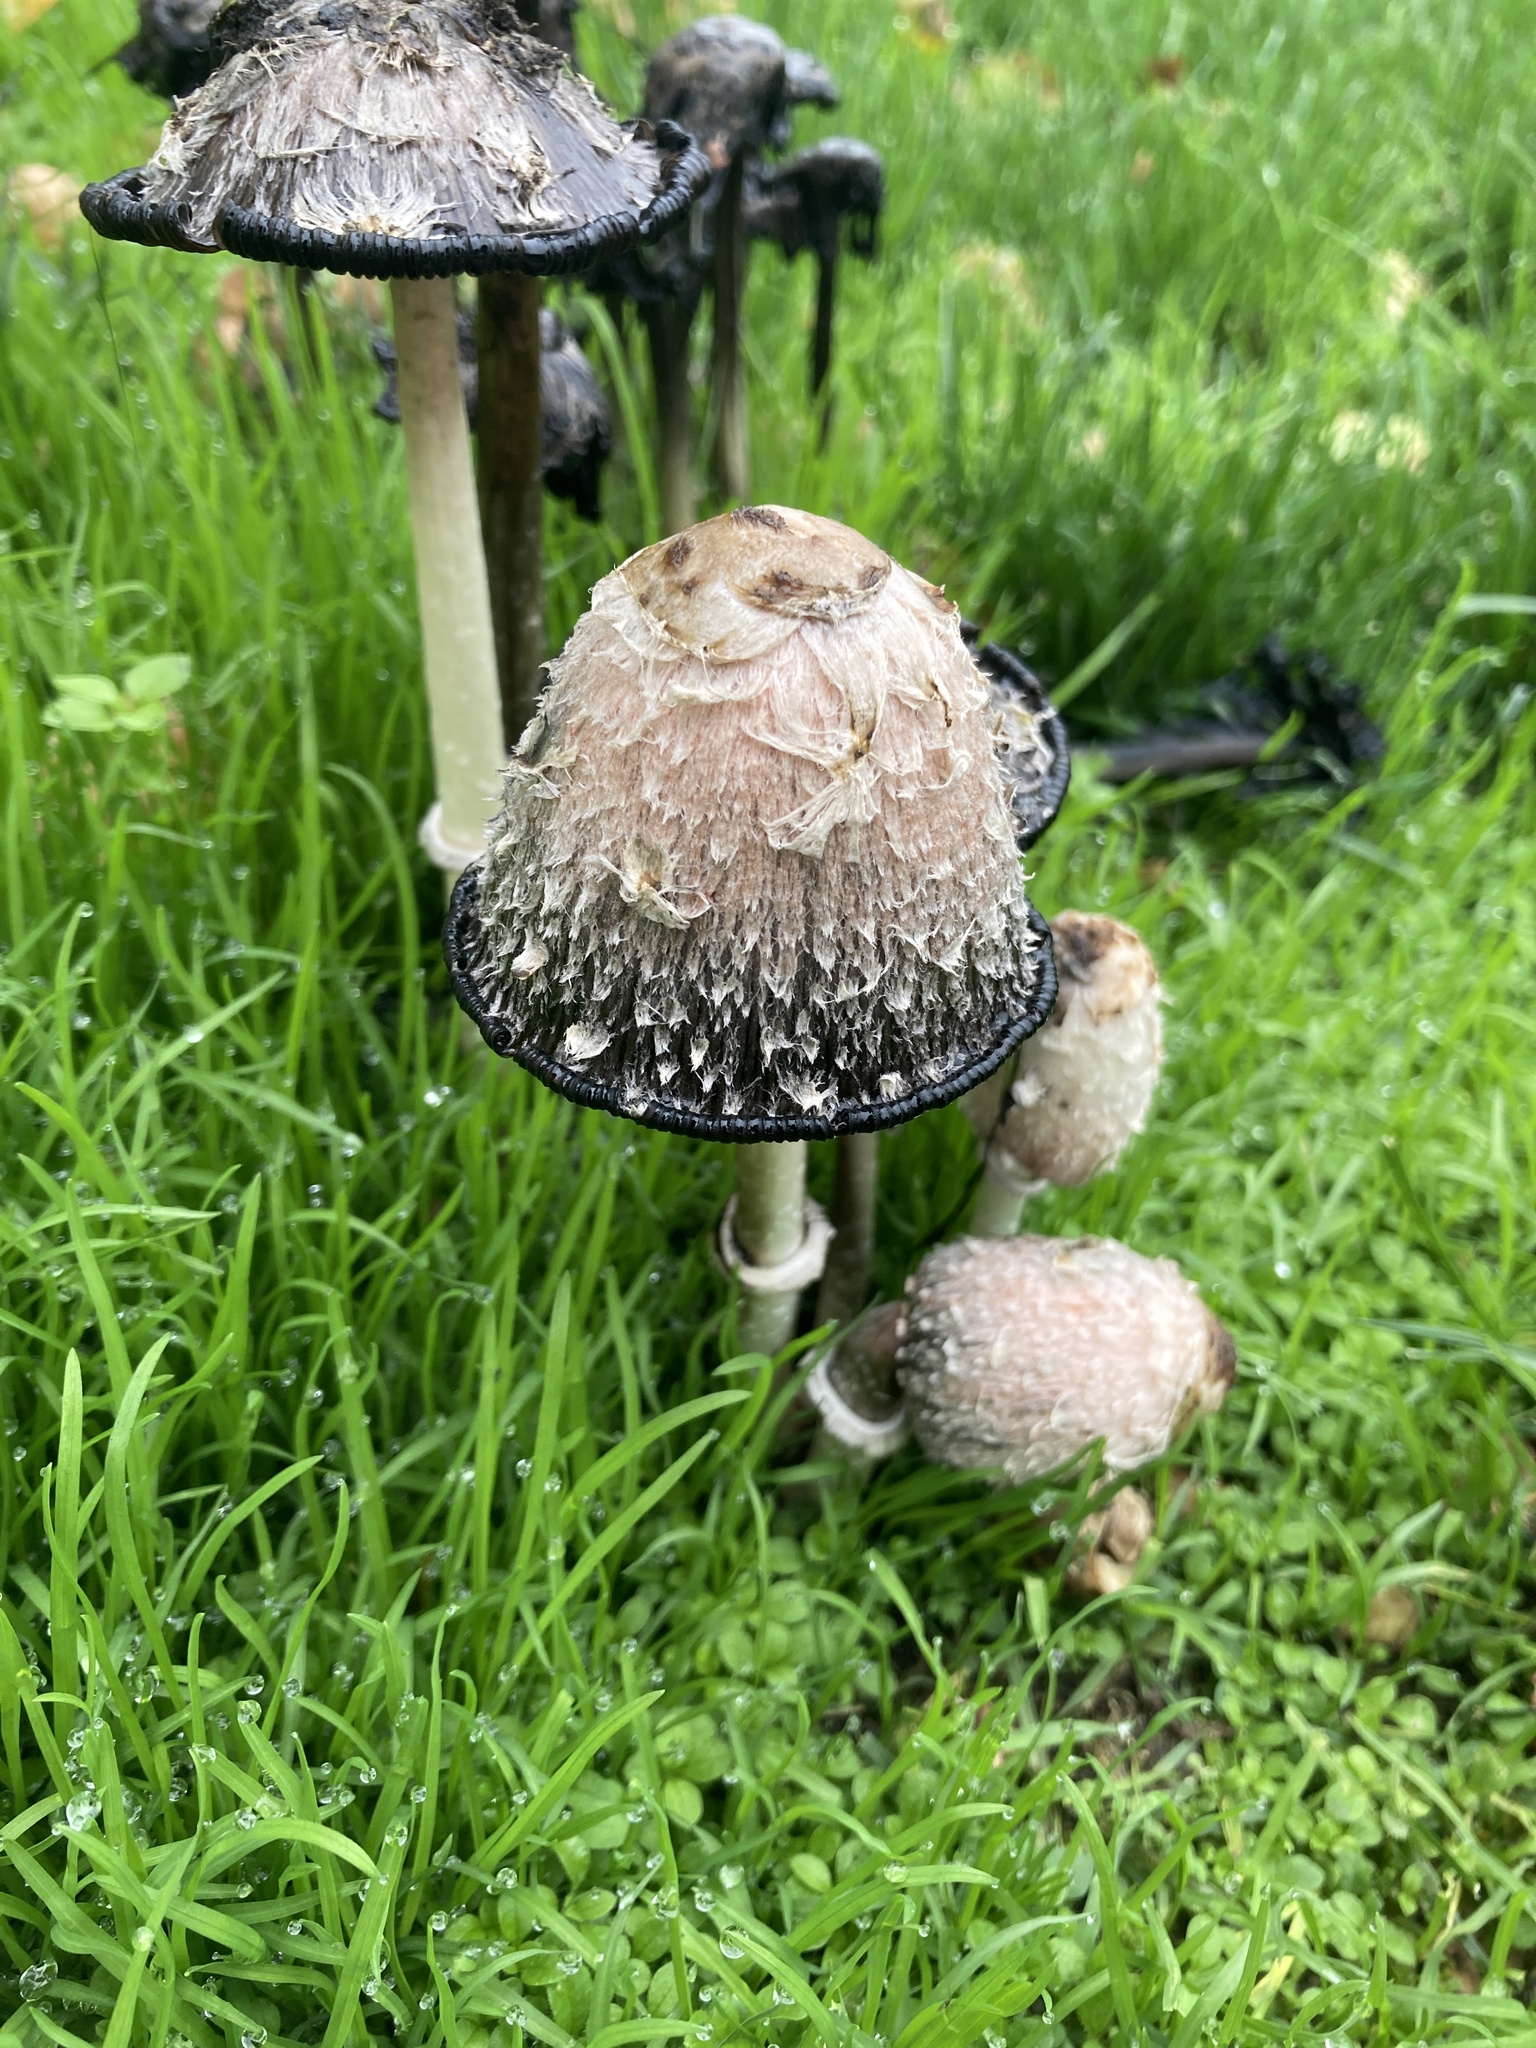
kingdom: Fungi
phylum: Basidiomycota
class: Agaricomycetes
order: Agaricales
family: Agaricaceae
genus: Coprinus
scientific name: Coprinus comatus
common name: Lawyer's wig
